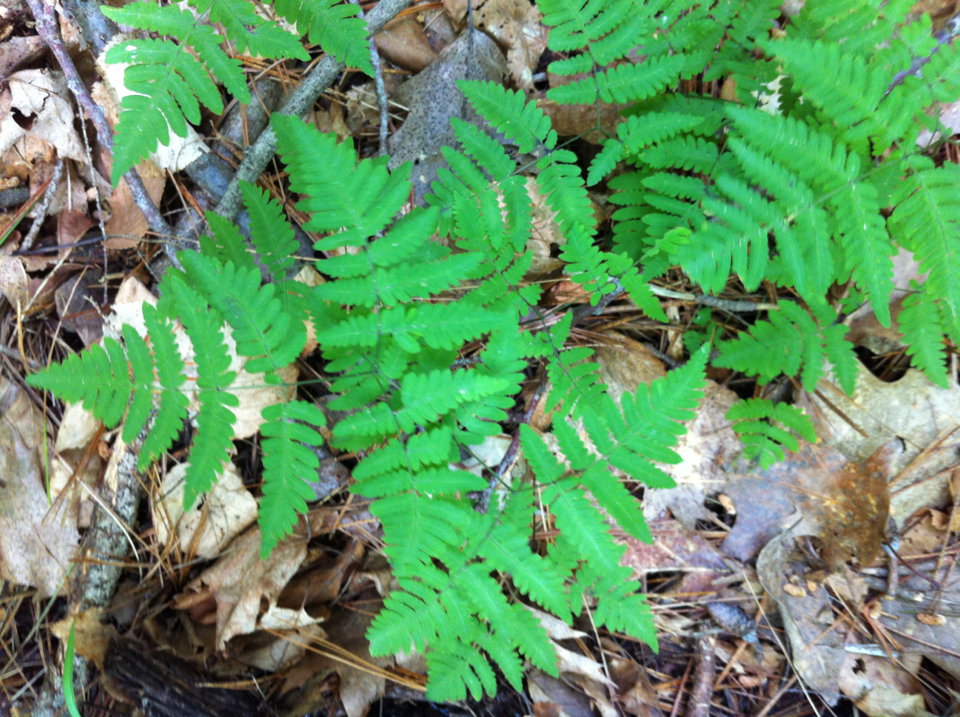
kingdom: Plantae
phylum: Tracheophyta
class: Polypodiopsida
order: Polypodiales
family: Cystopteridaceae
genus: Gymnocarpium
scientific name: Gymnocarpium dryopteris
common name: Oak fern
